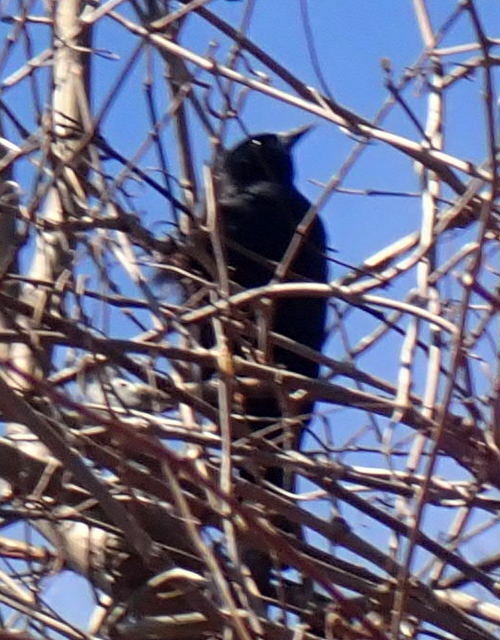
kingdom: Animalia
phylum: Chordata
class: Aves
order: Passeriformes
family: Icteridae
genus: Agelaius
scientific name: Agelaius phoeniceus
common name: Red-winged blackbird
